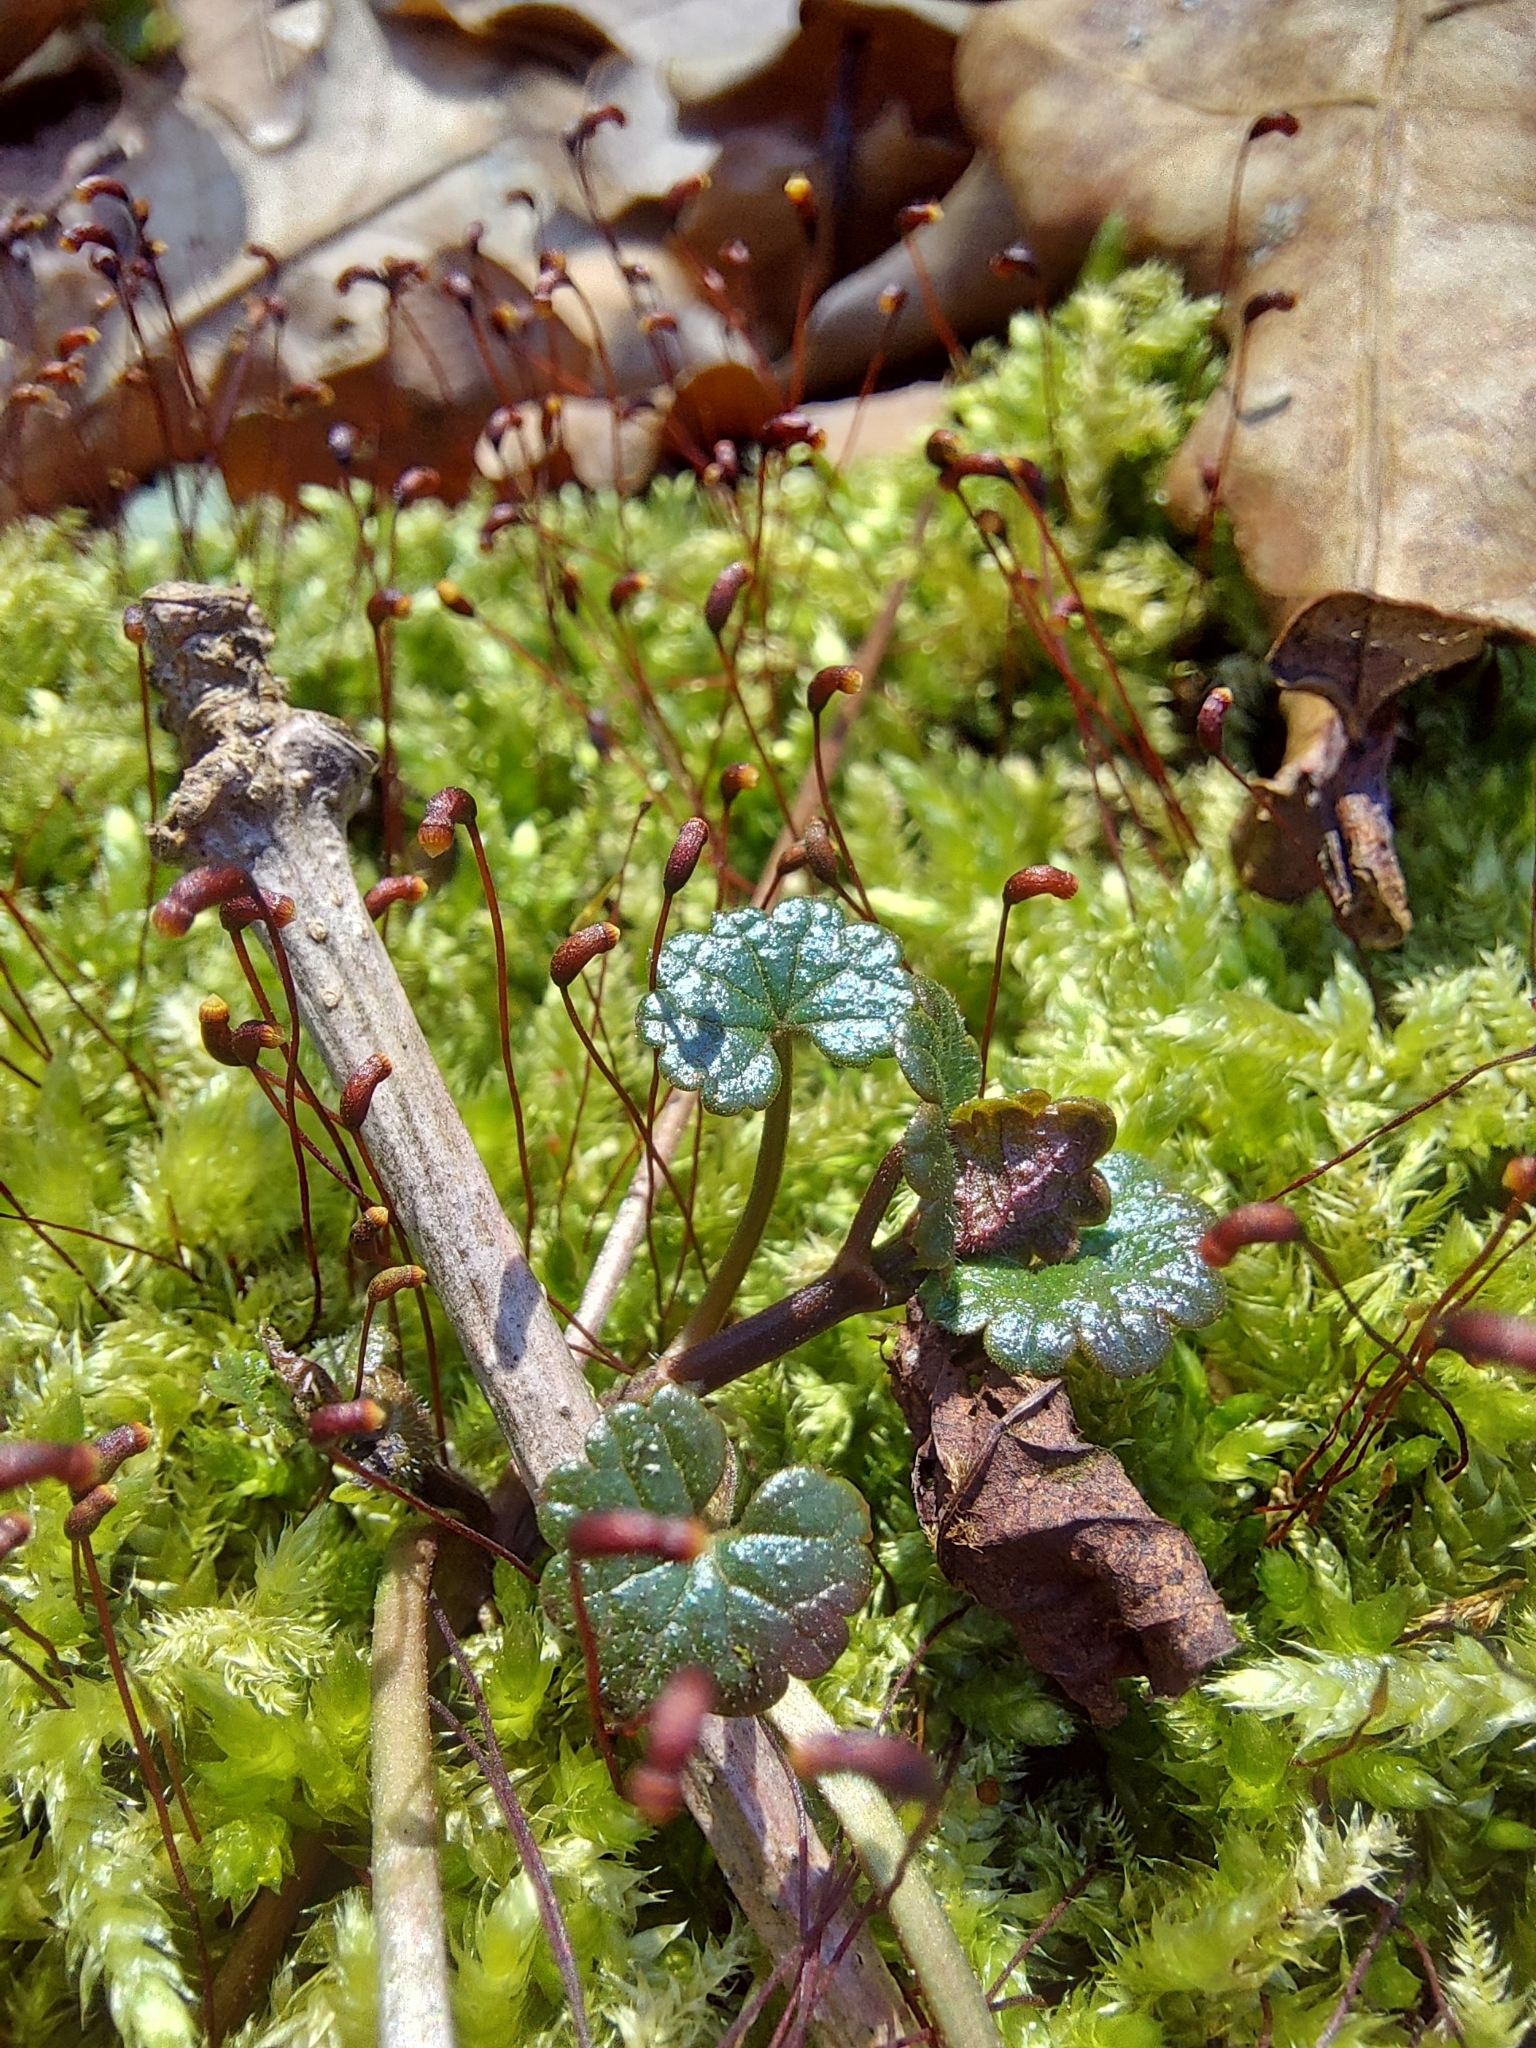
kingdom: Plantae
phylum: Tracheophyta
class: Magnoliopsida
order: Lamiales
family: Lamiaceae
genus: Glechoma
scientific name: Glechoma hederacea
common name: Ground ivy
